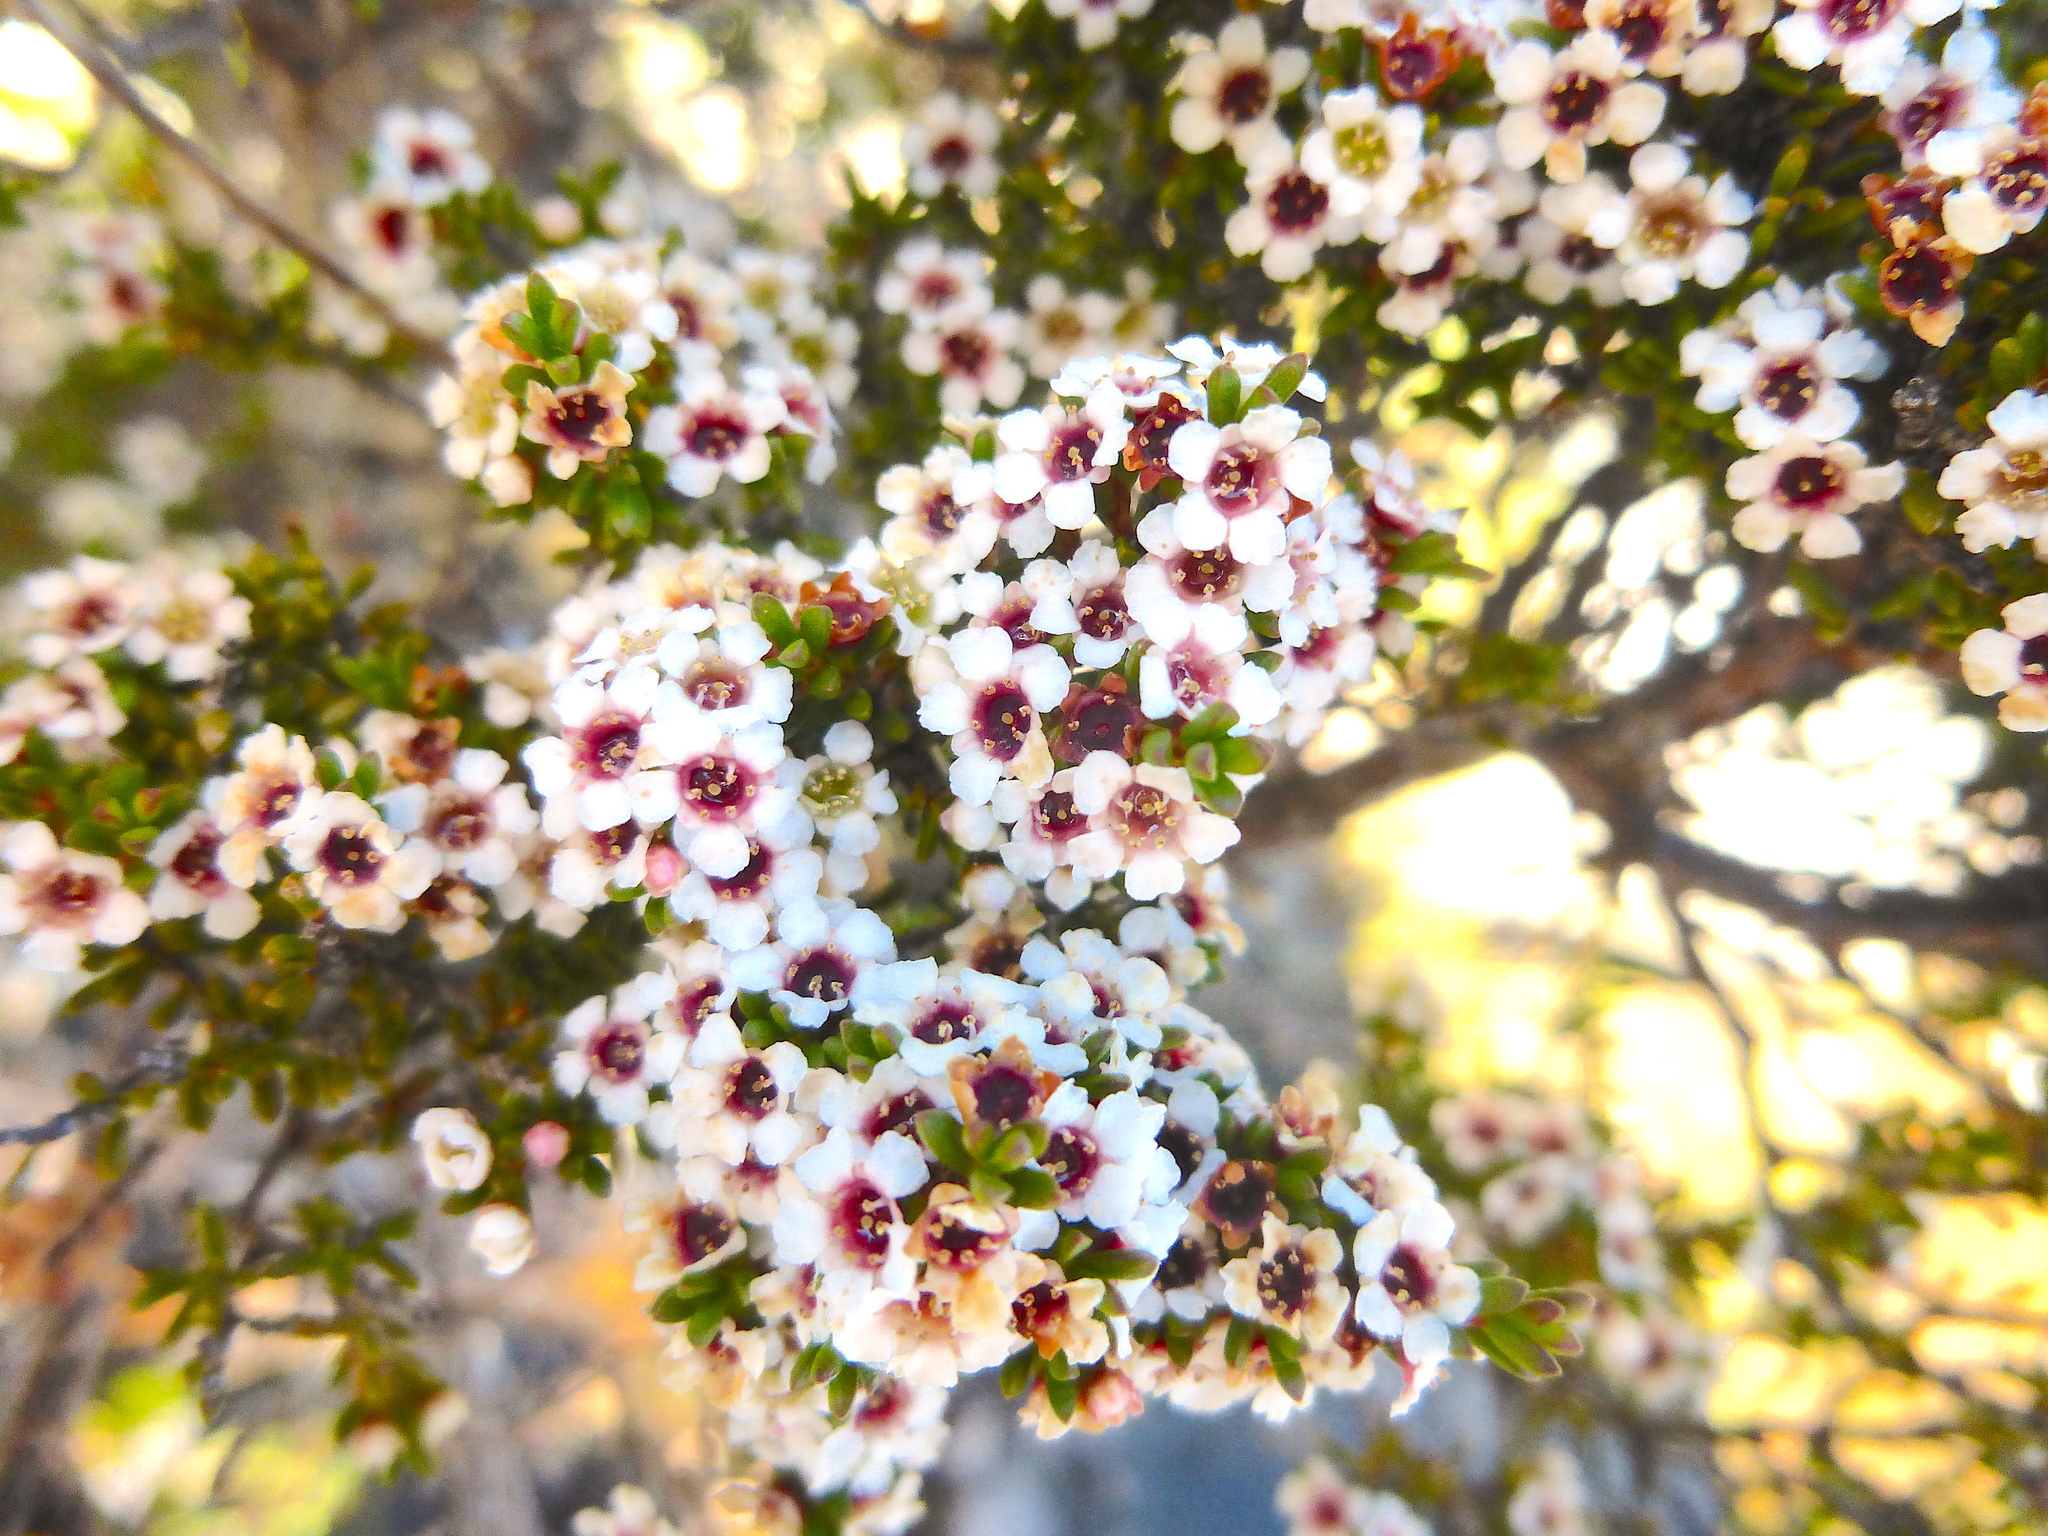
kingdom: Plantae
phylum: Tracheophyta
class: Magnoliopsida
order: Myrtales
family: Myrtaceae
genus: Baeckea
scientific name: Baeckea gunniana
